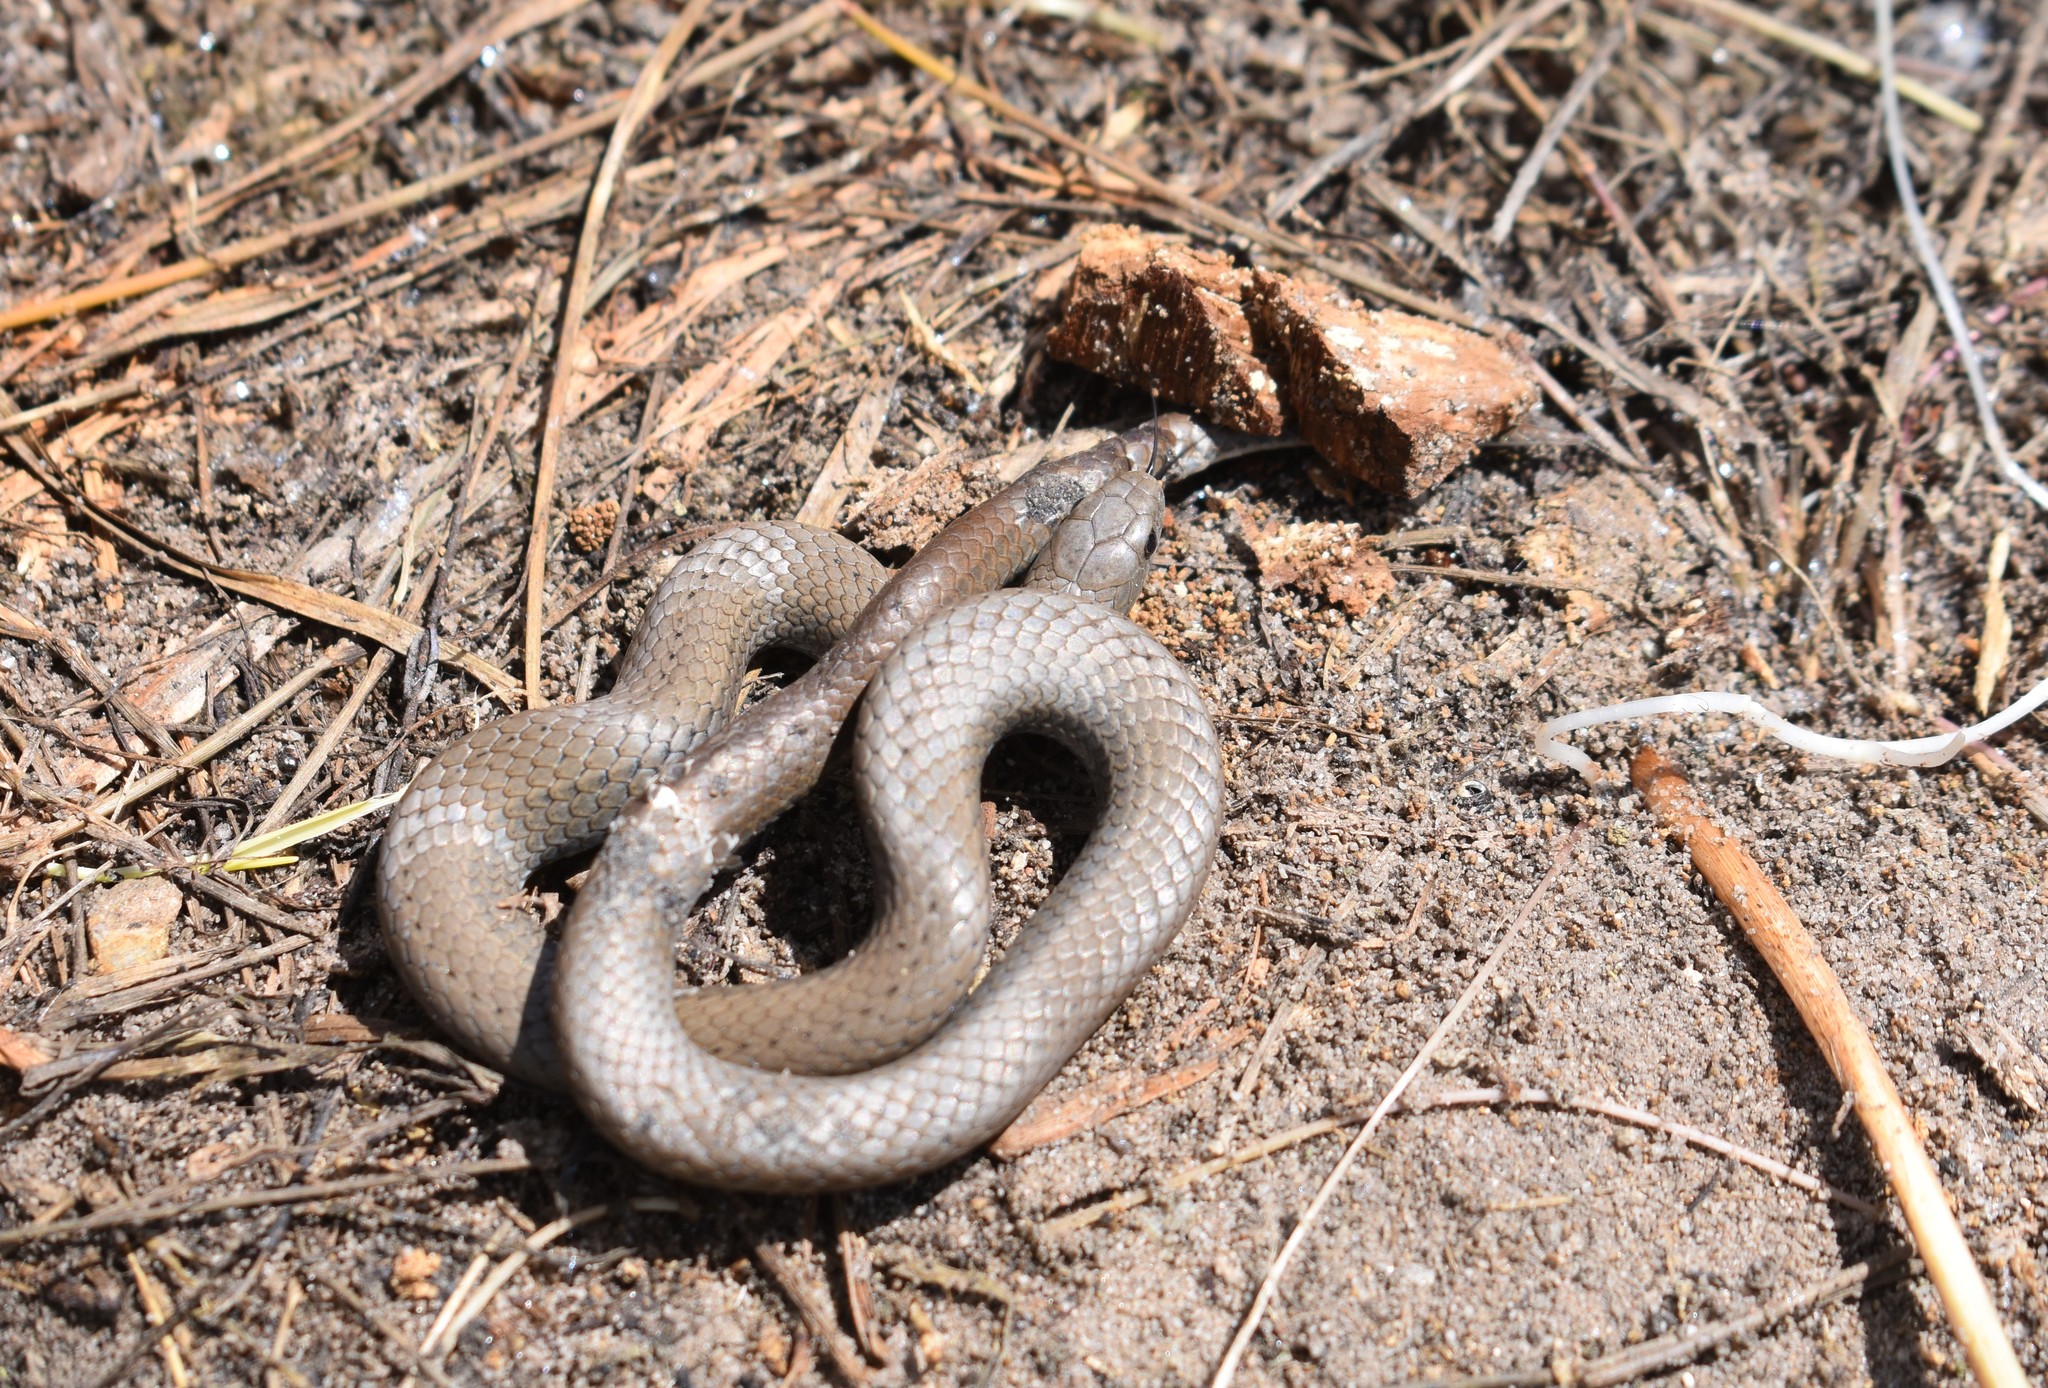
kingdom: Animalia
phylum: Chordata
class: Squamata
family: Pseudoxyrhophiidae
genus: Duberria
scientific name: Duberria lutrix
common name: Common slug eater
